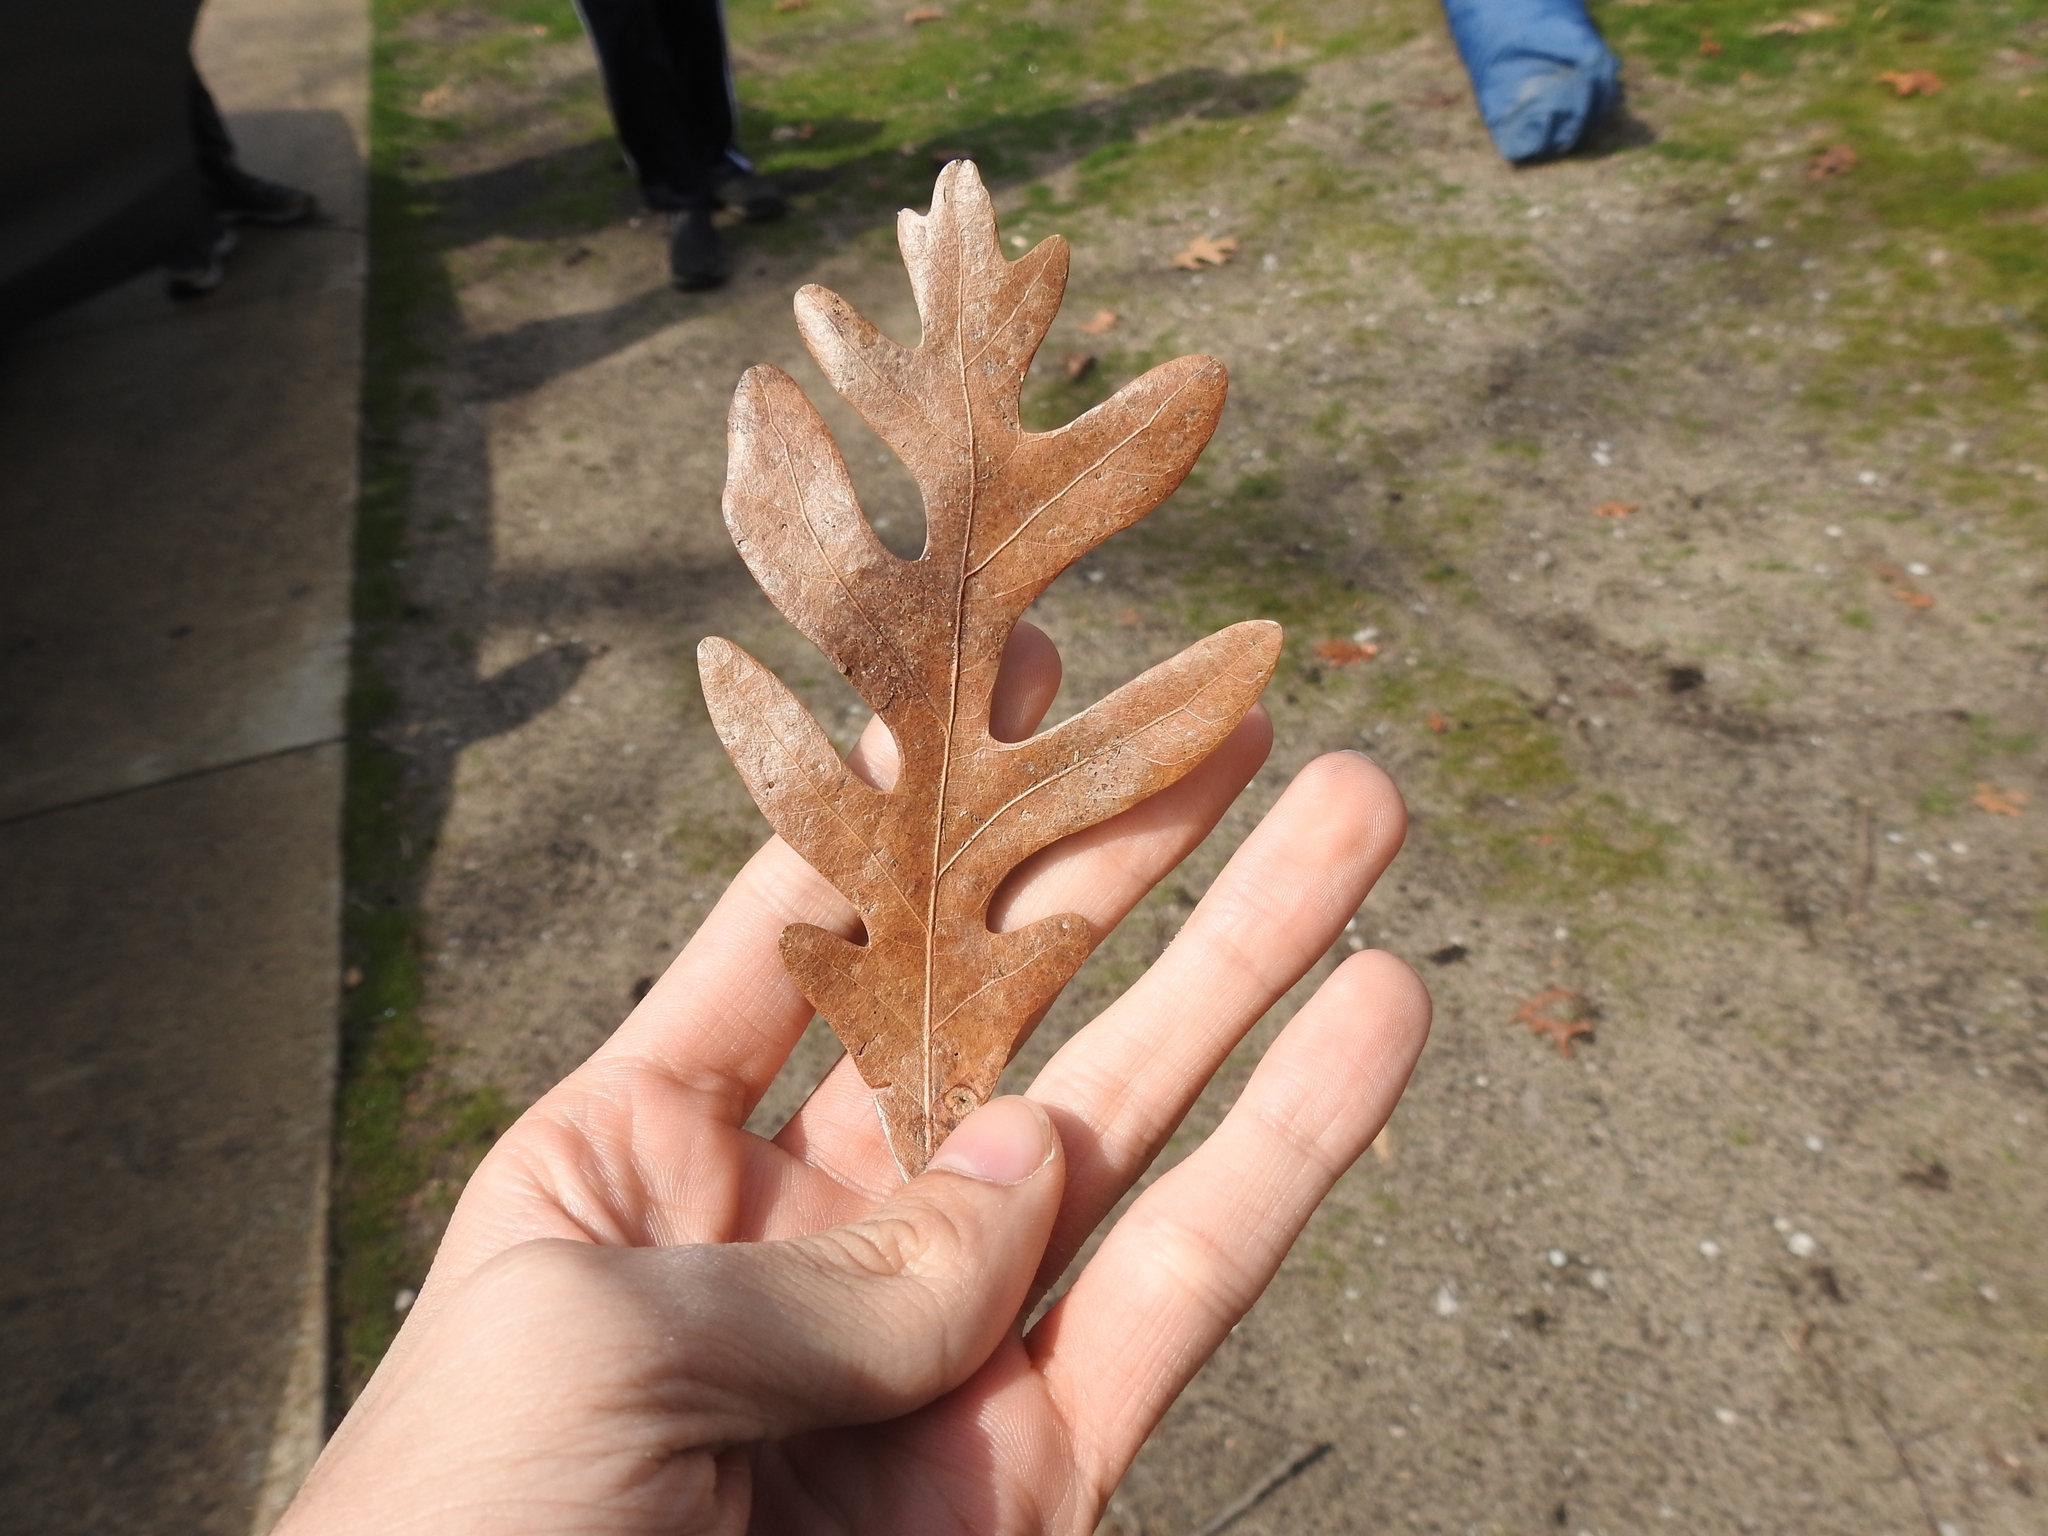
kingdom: Plantae
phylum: Tracheophyta
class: Magnoliopsida
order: Fagales
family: Fagaceae
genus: Quercus
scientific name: Quercus alba
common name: White oak
